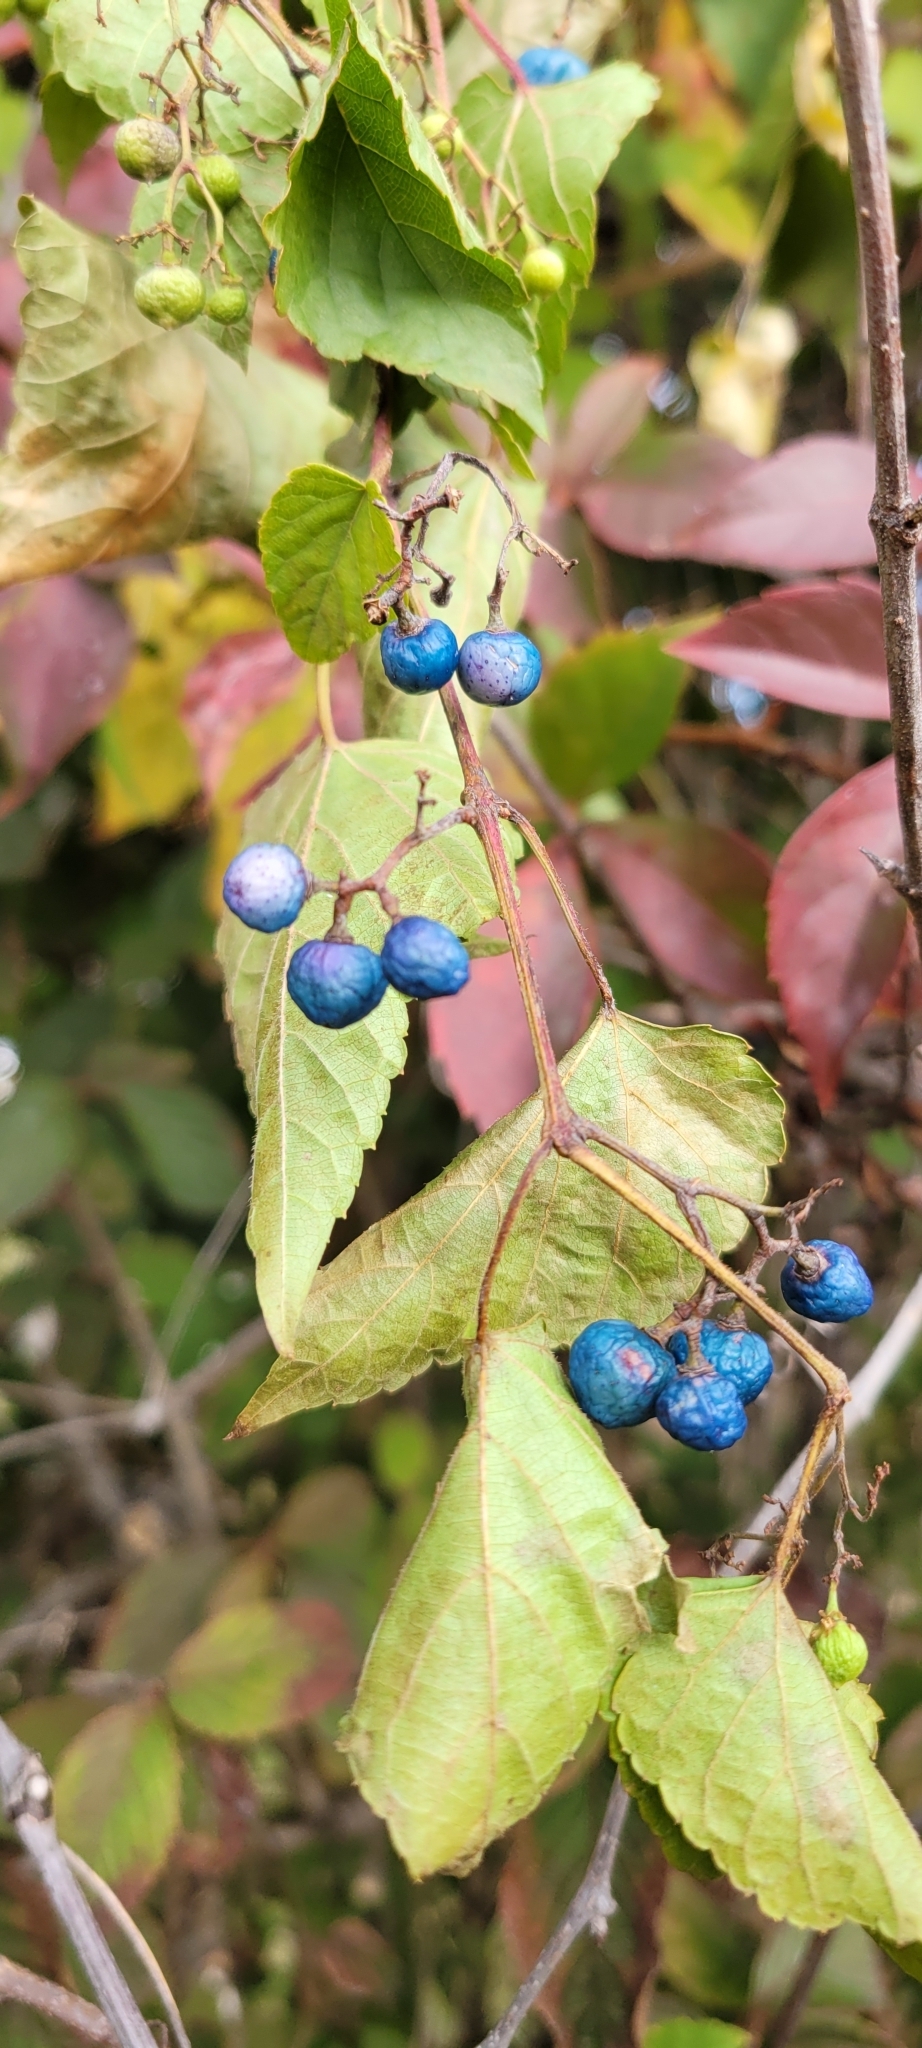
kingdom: Plantae
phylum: Tracheophyta
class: Magnoliopsida
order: Vitales
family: Vitaceae
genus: Ampelopsis
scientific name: Ampelopsis glandulosa
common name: Amur peppervine
